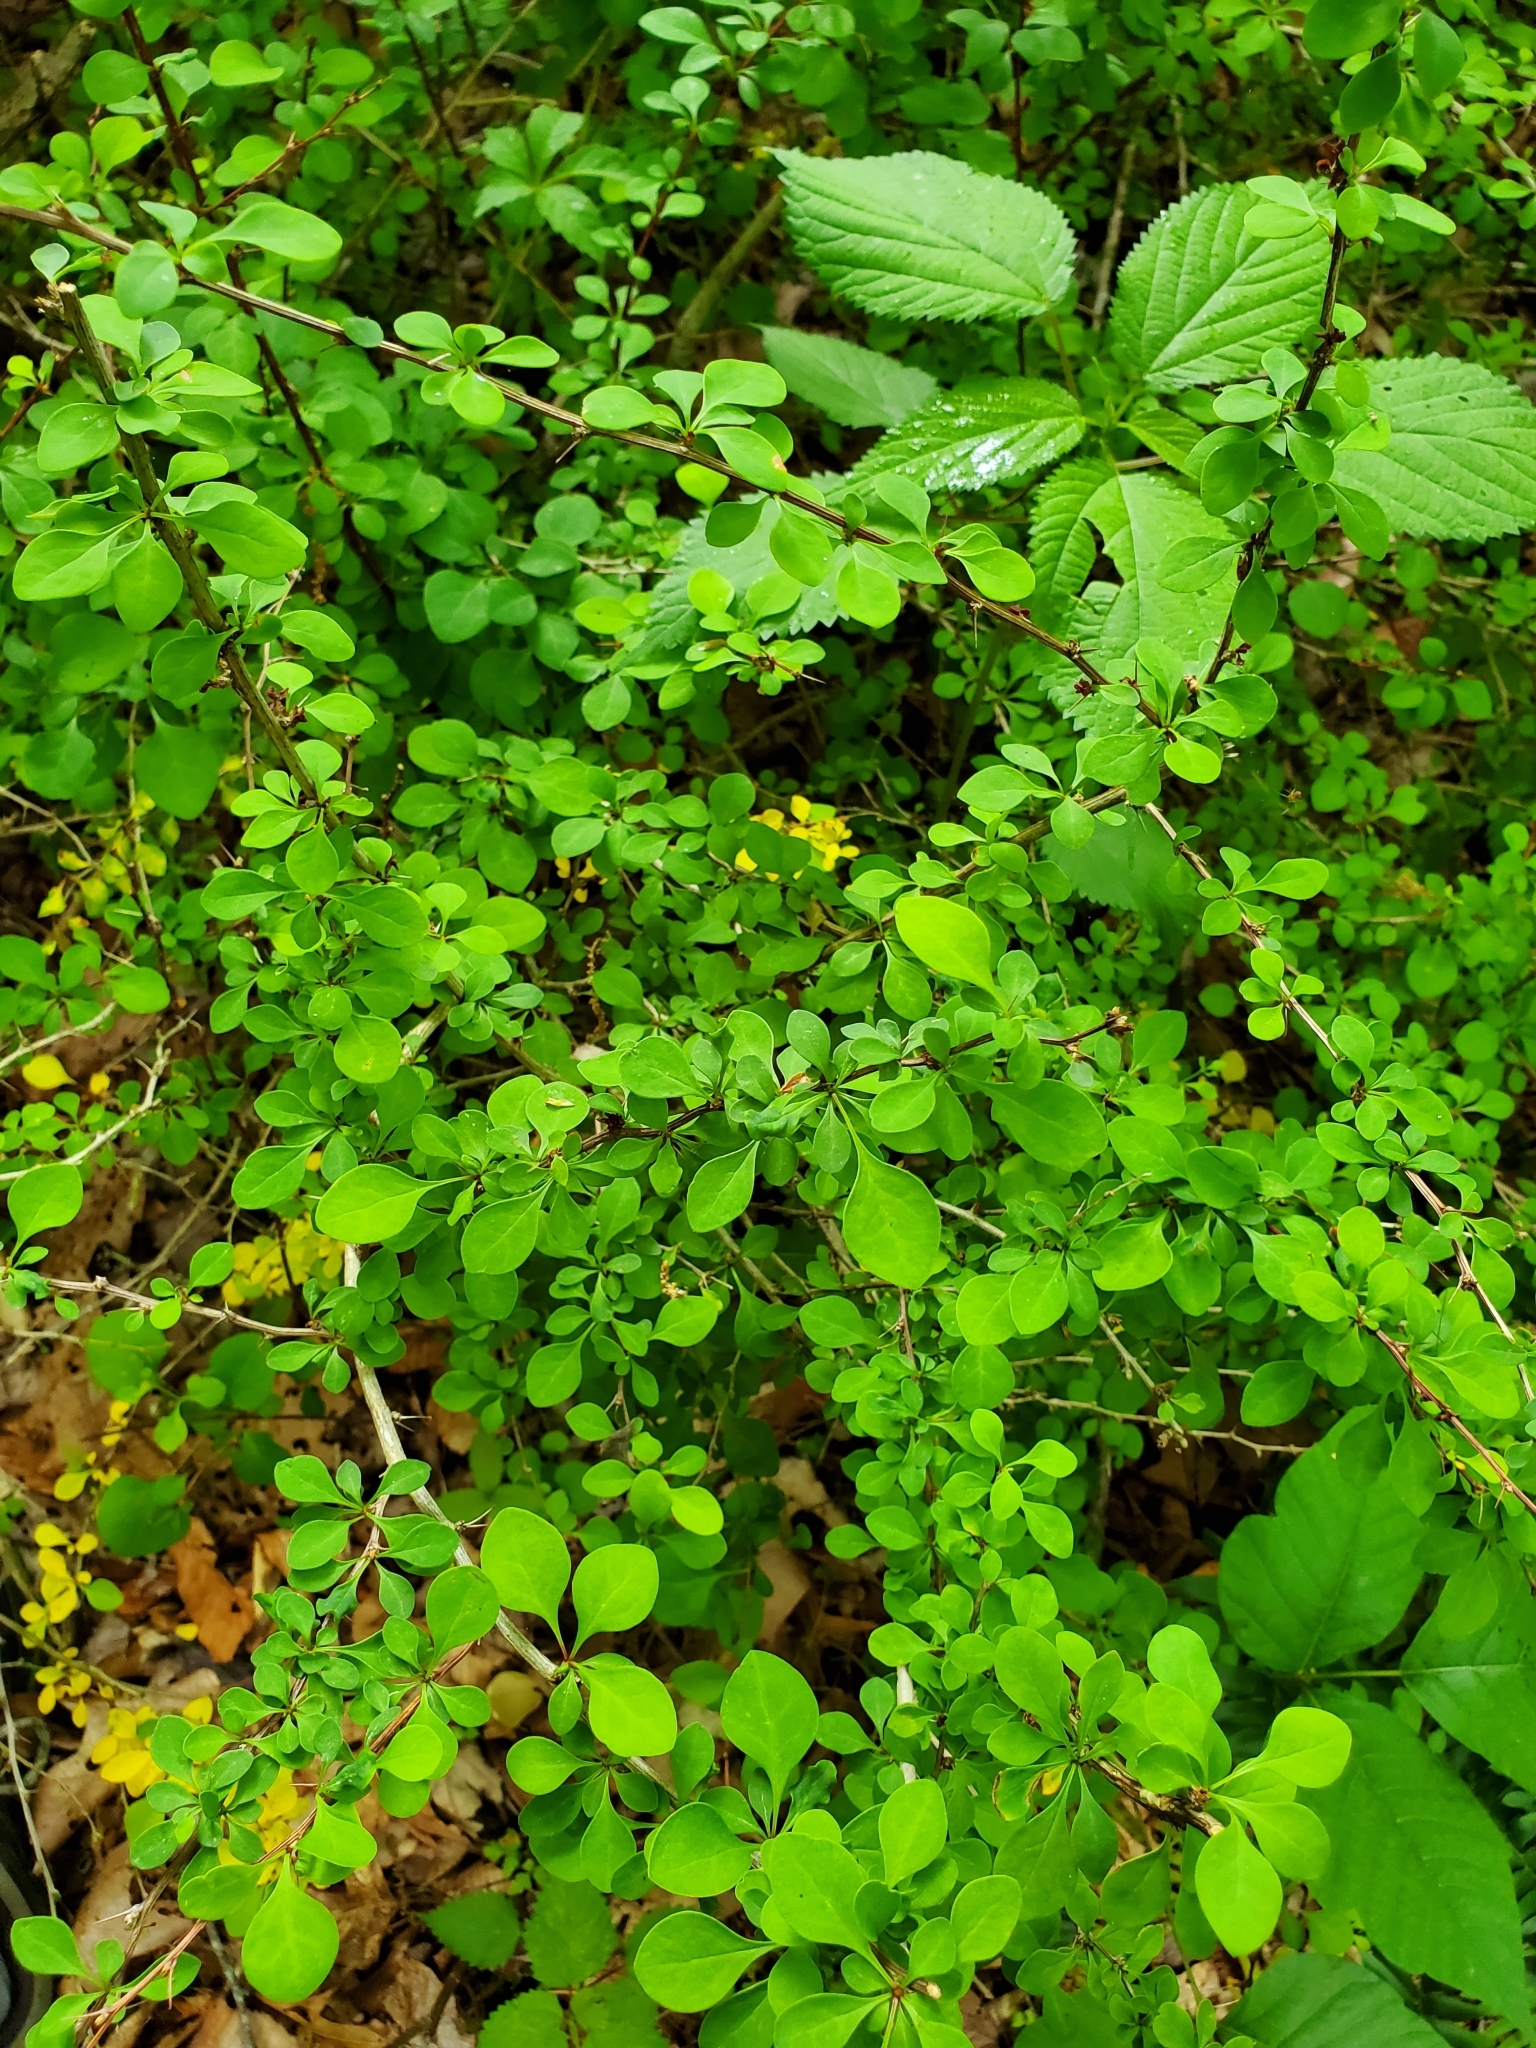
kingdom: Plantae
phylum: Tracheophyta
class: Magnoliopsida
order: Ranunculales
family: Berberidaceae
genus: Berberis
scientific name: Berberis thunbergii
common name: Japanese barberry
